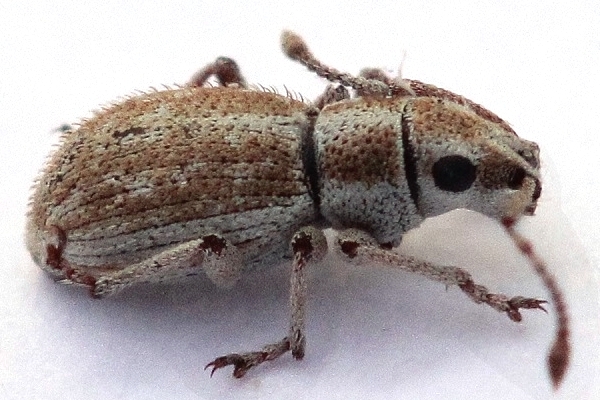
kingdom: Animalia
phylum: Arthropoda
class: Insecta
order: Coleoptera
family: Curculionidae
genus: Ptochus
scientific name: Ptochus porcellus
